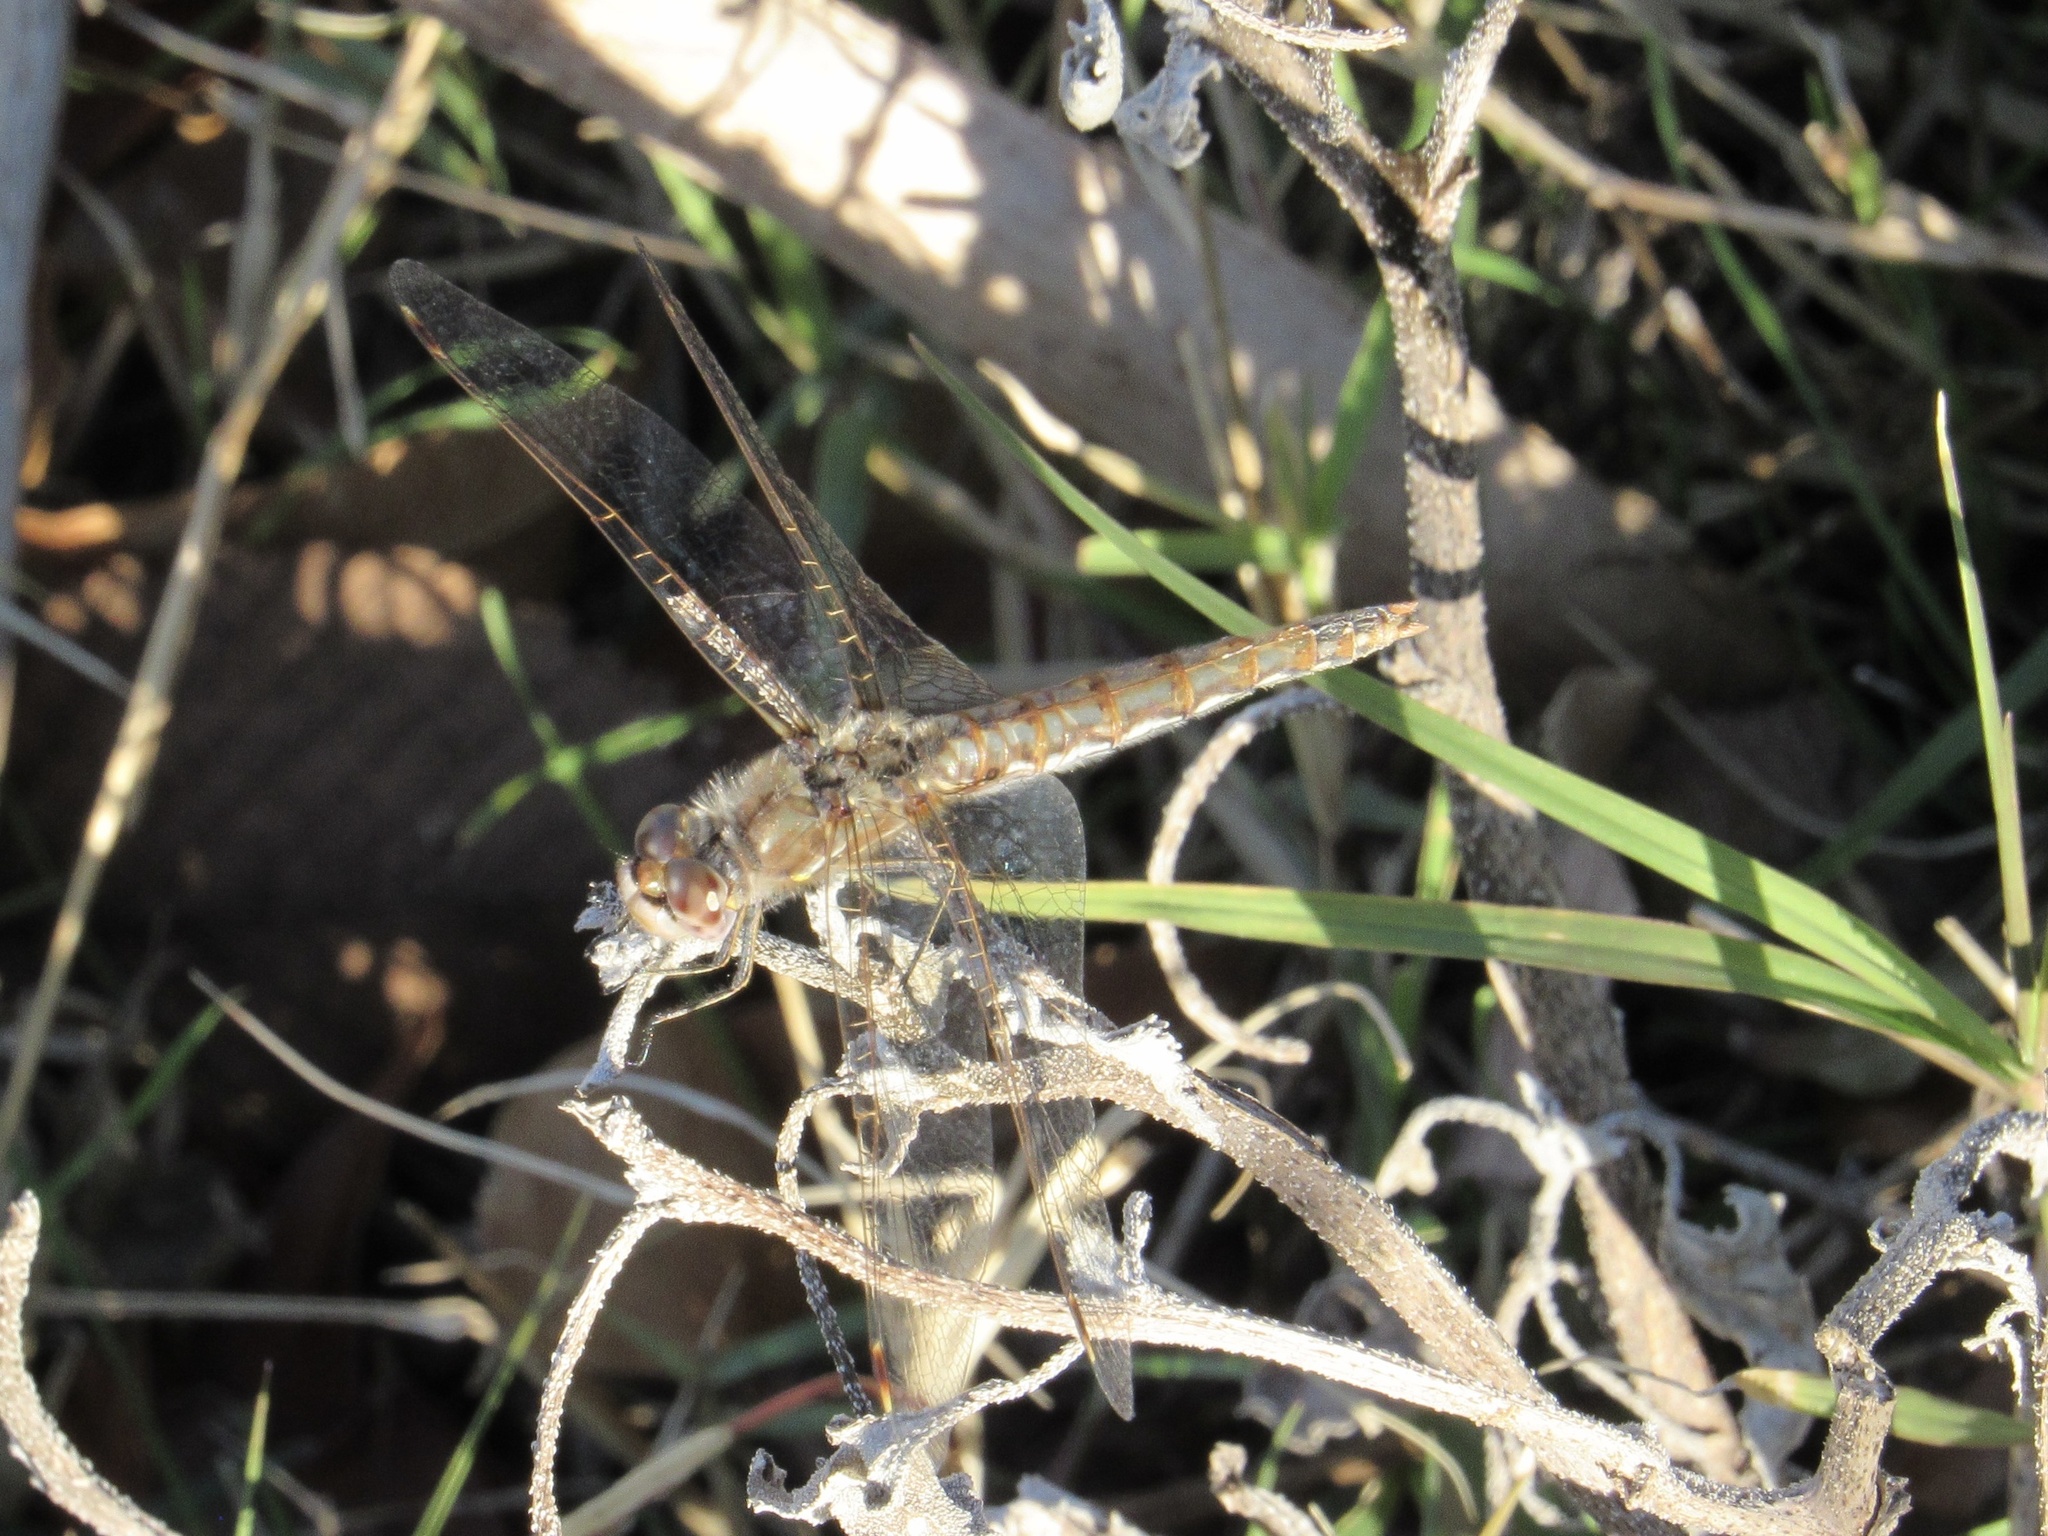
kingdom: Animalia
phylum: Arthropoda
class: Insecta
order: Odonata
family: Libellulidae
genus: Sympetrum
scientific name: Sympetrum corruptum
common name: Variegated meadowhawk
